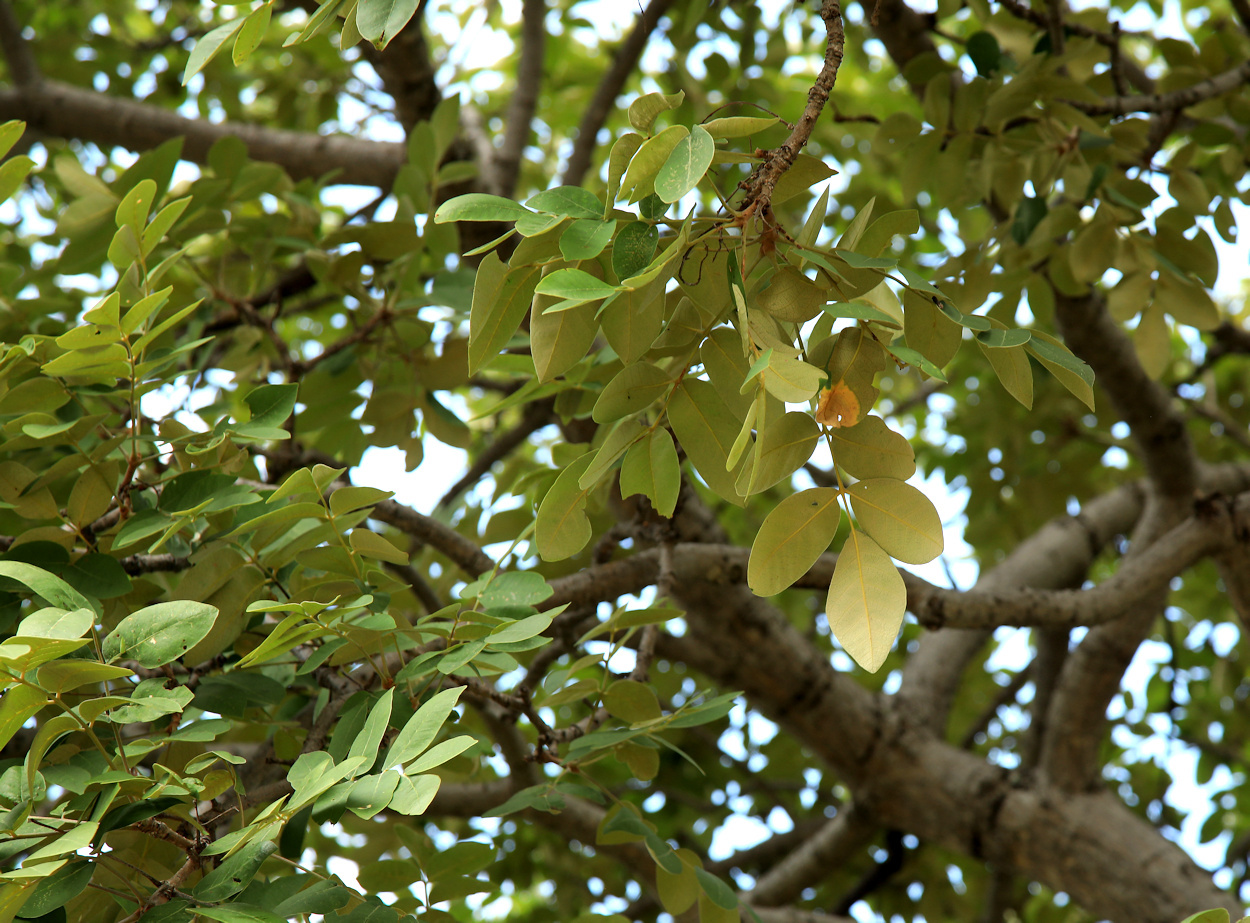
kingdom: Plantae
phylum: Tracheophyta
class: Magnoliopsida
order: Sapindales
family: Anacardiaceae
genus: Lannea
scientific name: Lannea discolor
